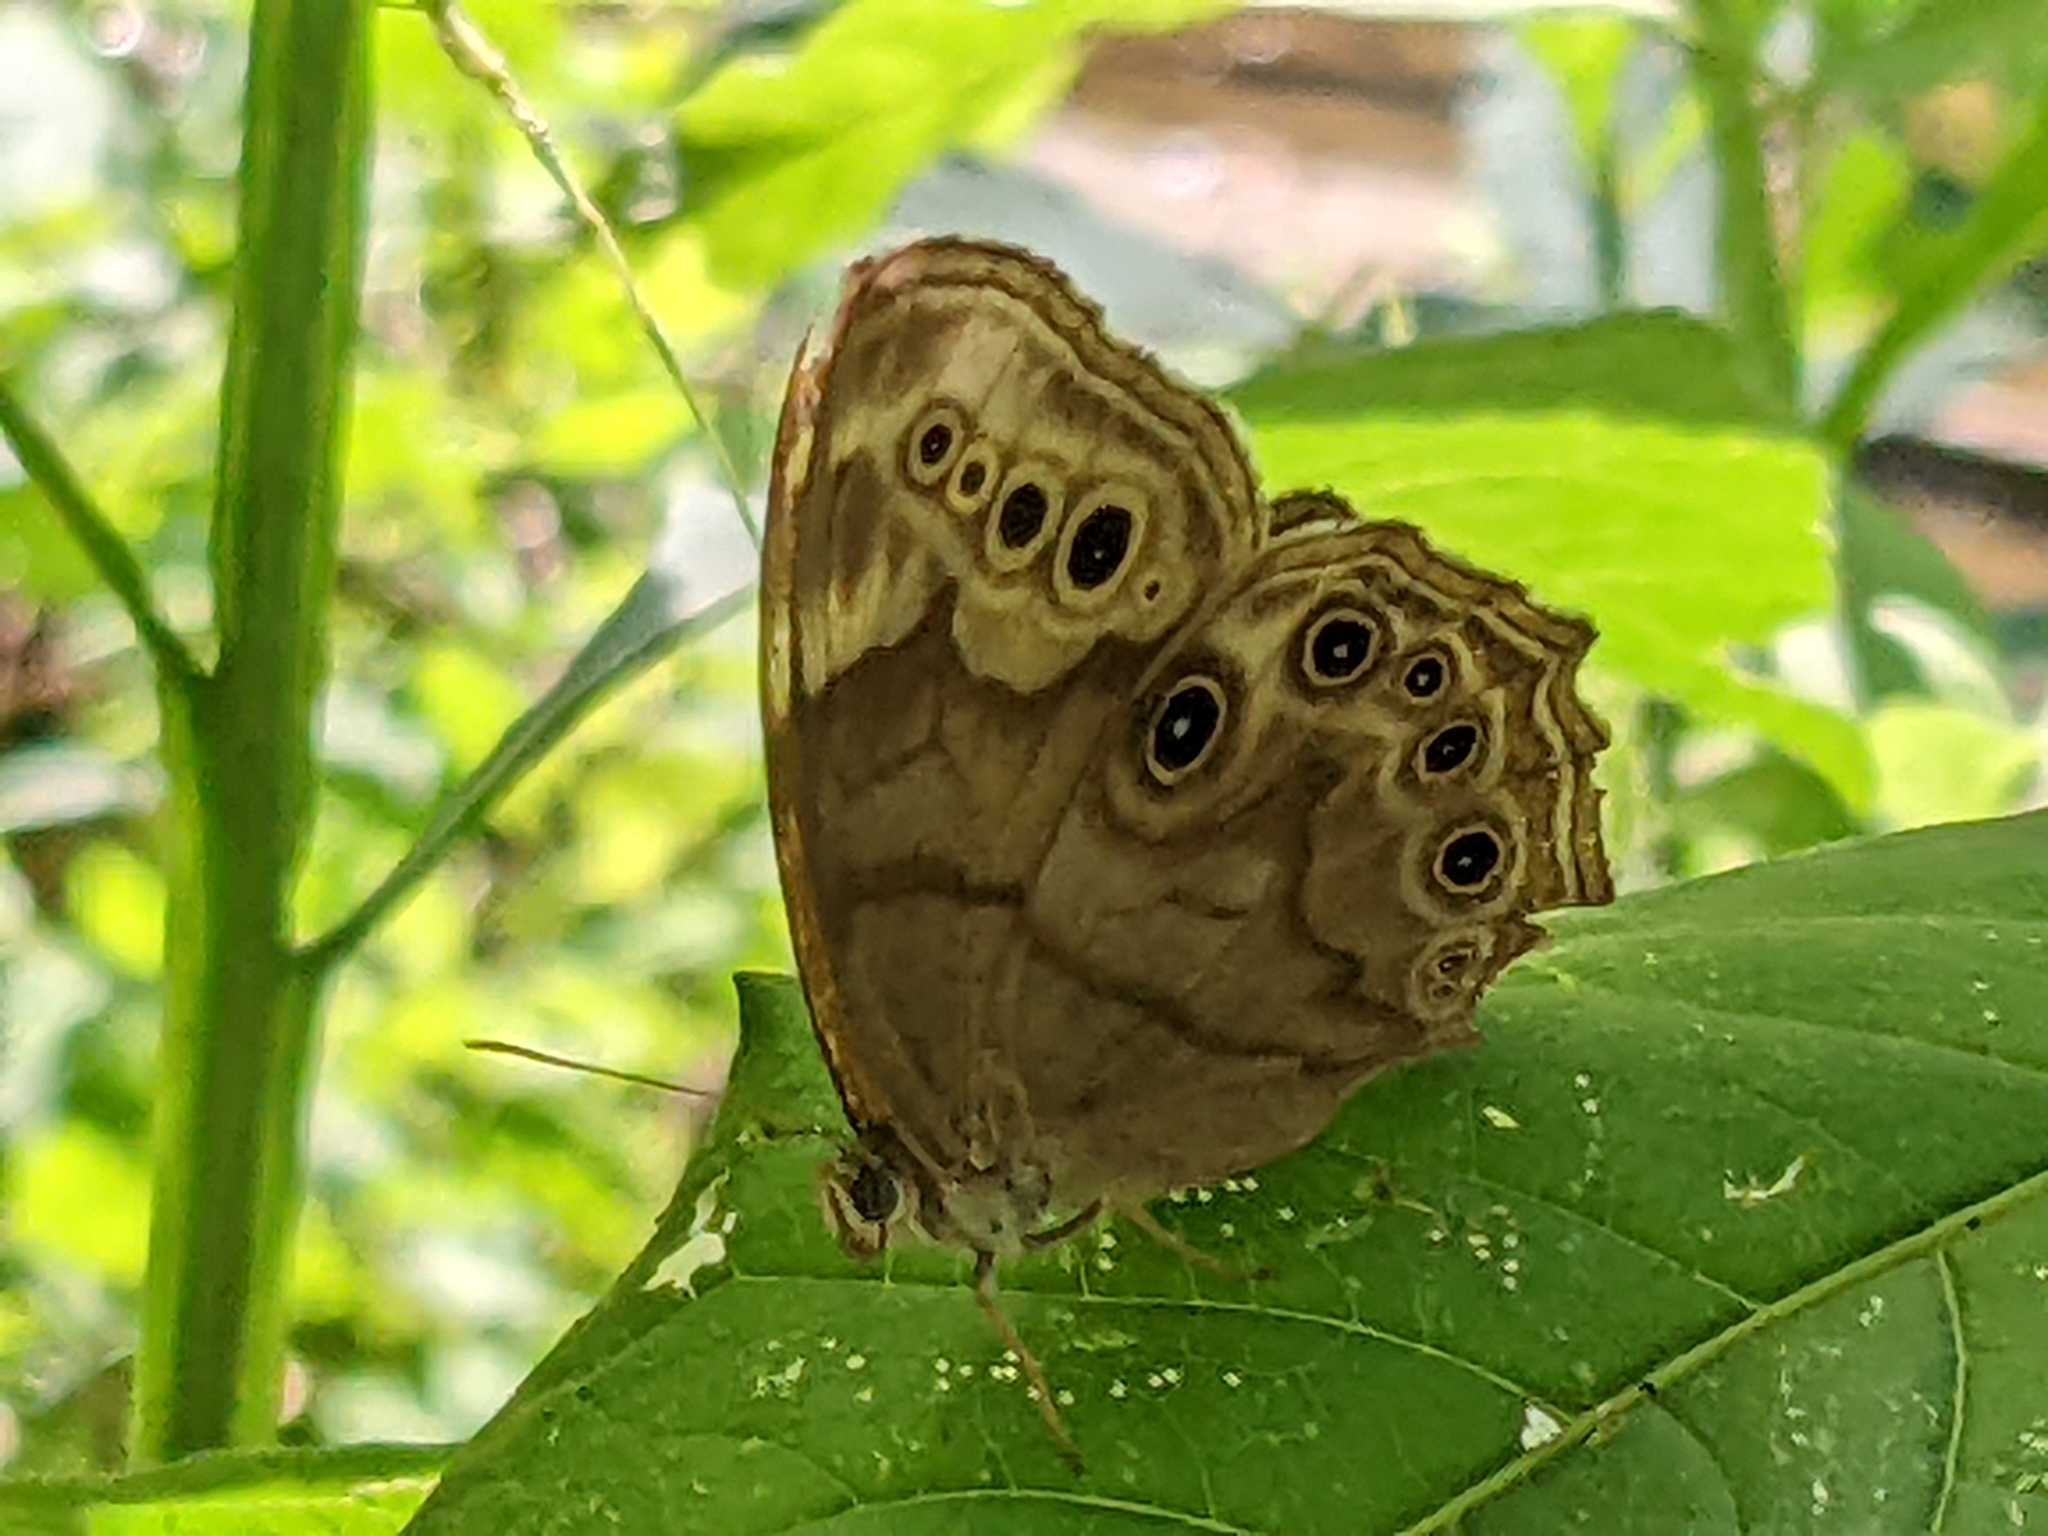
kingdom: Animalia
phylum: Arthropoda
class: Insecta
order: Lepidoptera
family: Nymphalidae
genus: Lethe
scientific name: Lethe anthedon
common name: Northern pearly-eye
